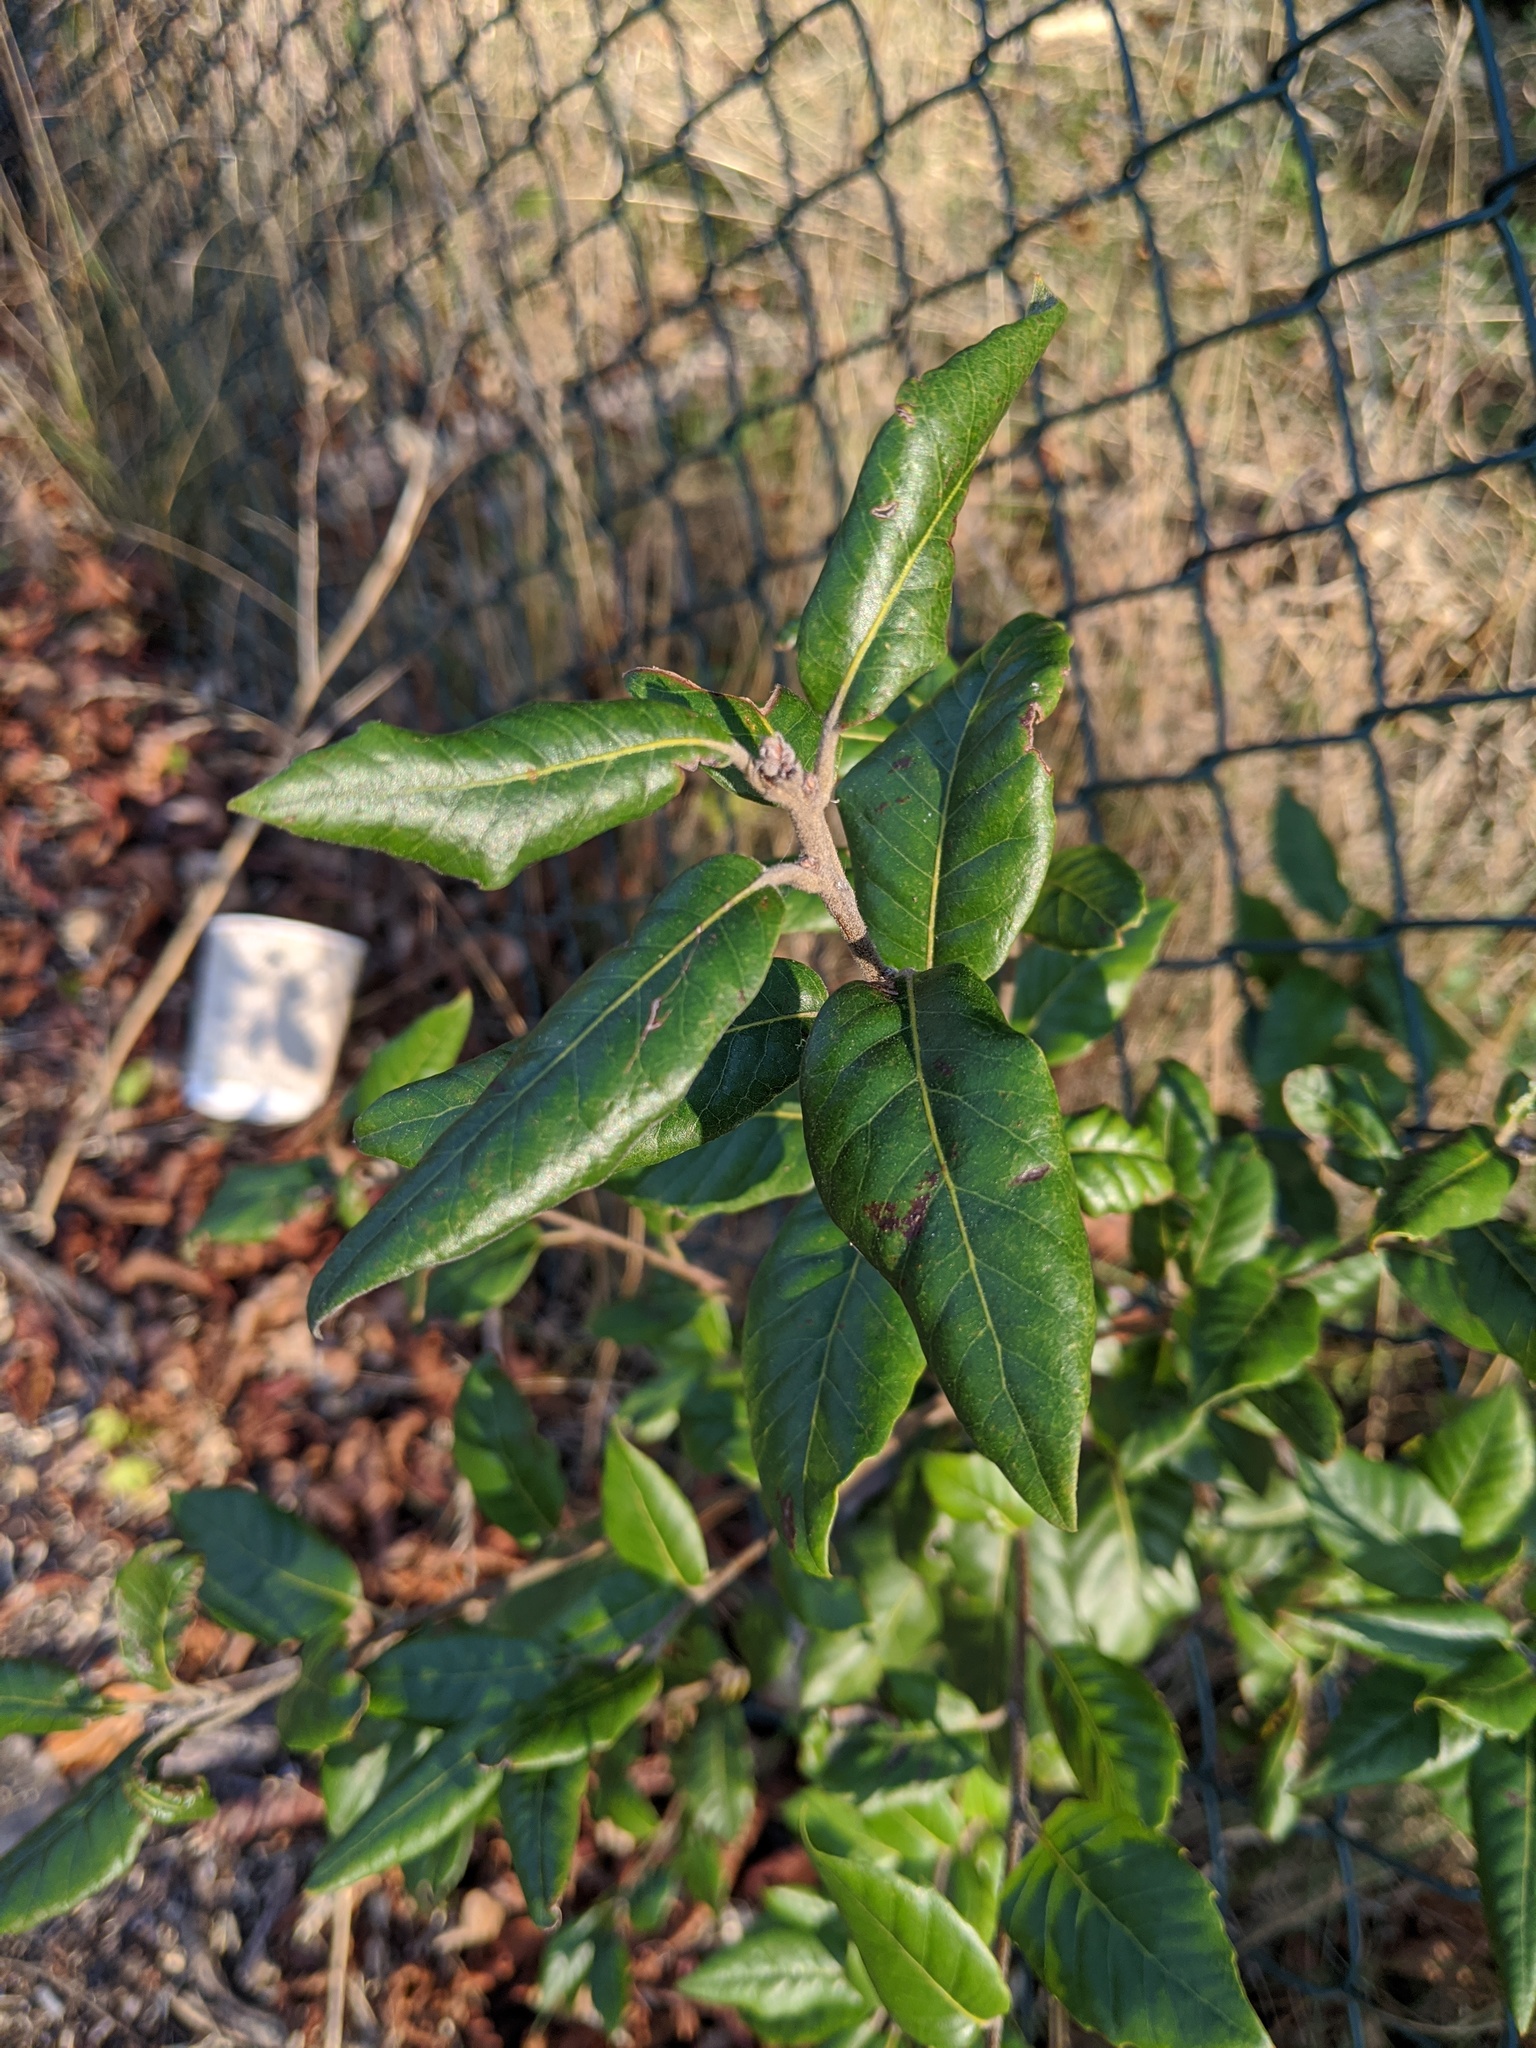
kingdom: Plantae
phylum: Tracheophyta
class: Magnoliopsida
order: Fagales
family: Fagaceae
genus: Quercus
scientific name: Quercus ilex
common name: Evergreen oak
